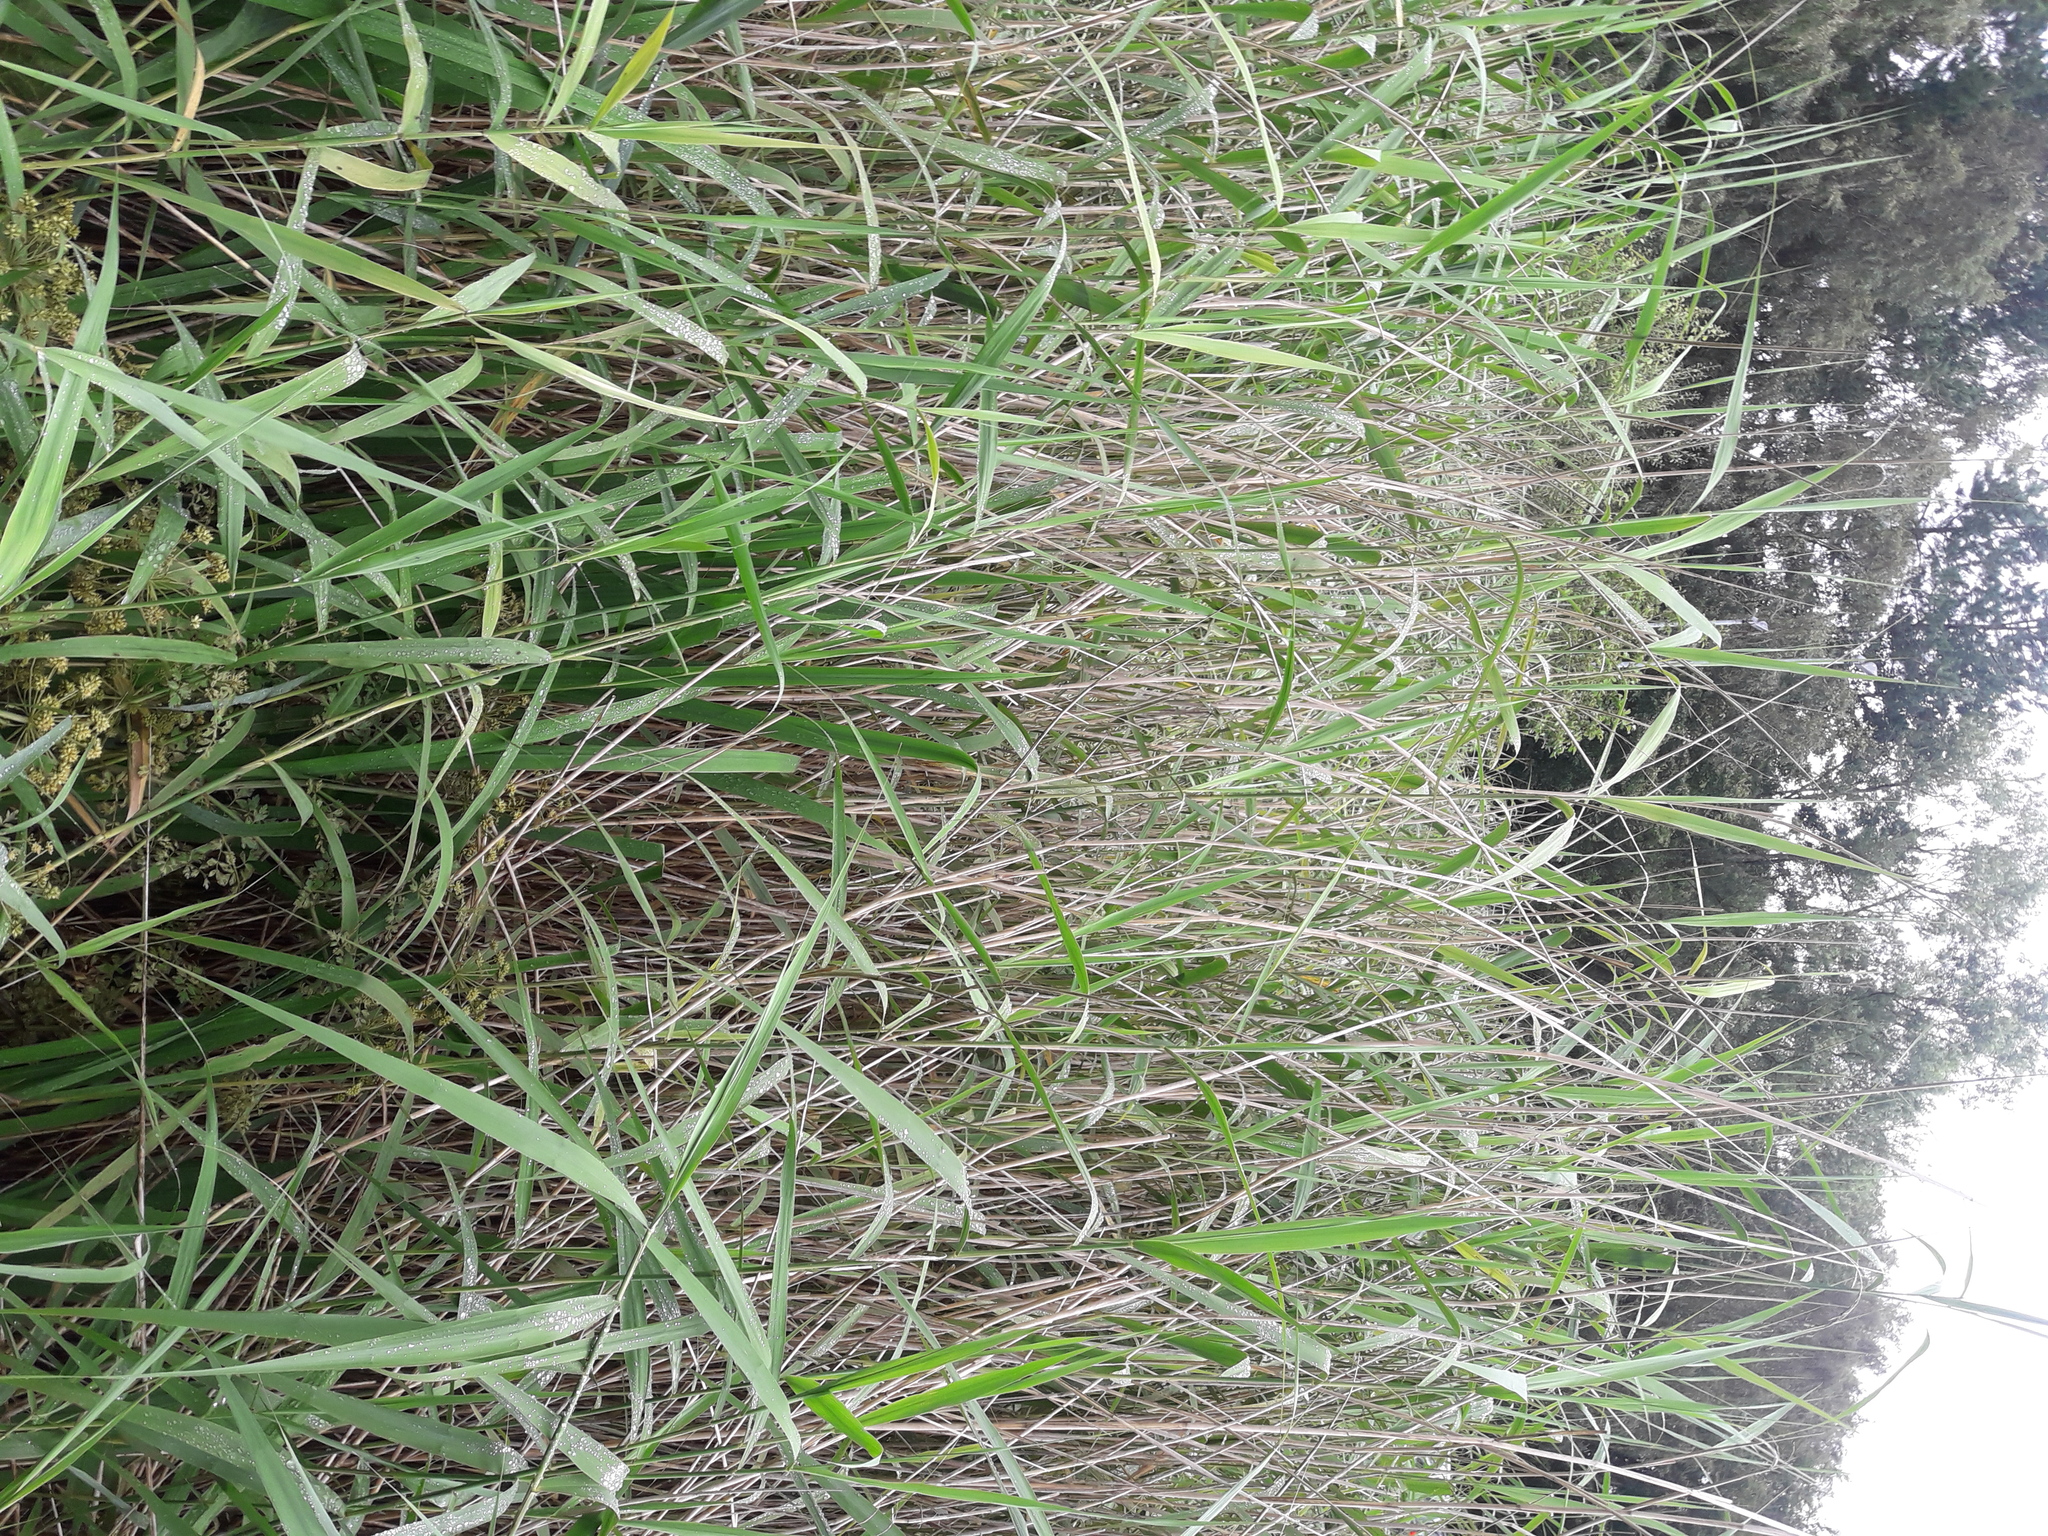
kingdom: Plantae
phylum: Tracheophyta
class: Magnoliopsida
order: Apiales
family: Apiaceae
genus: Oenanthe
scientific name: Oenanthe crocata
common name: Hemlock water-dropwort
